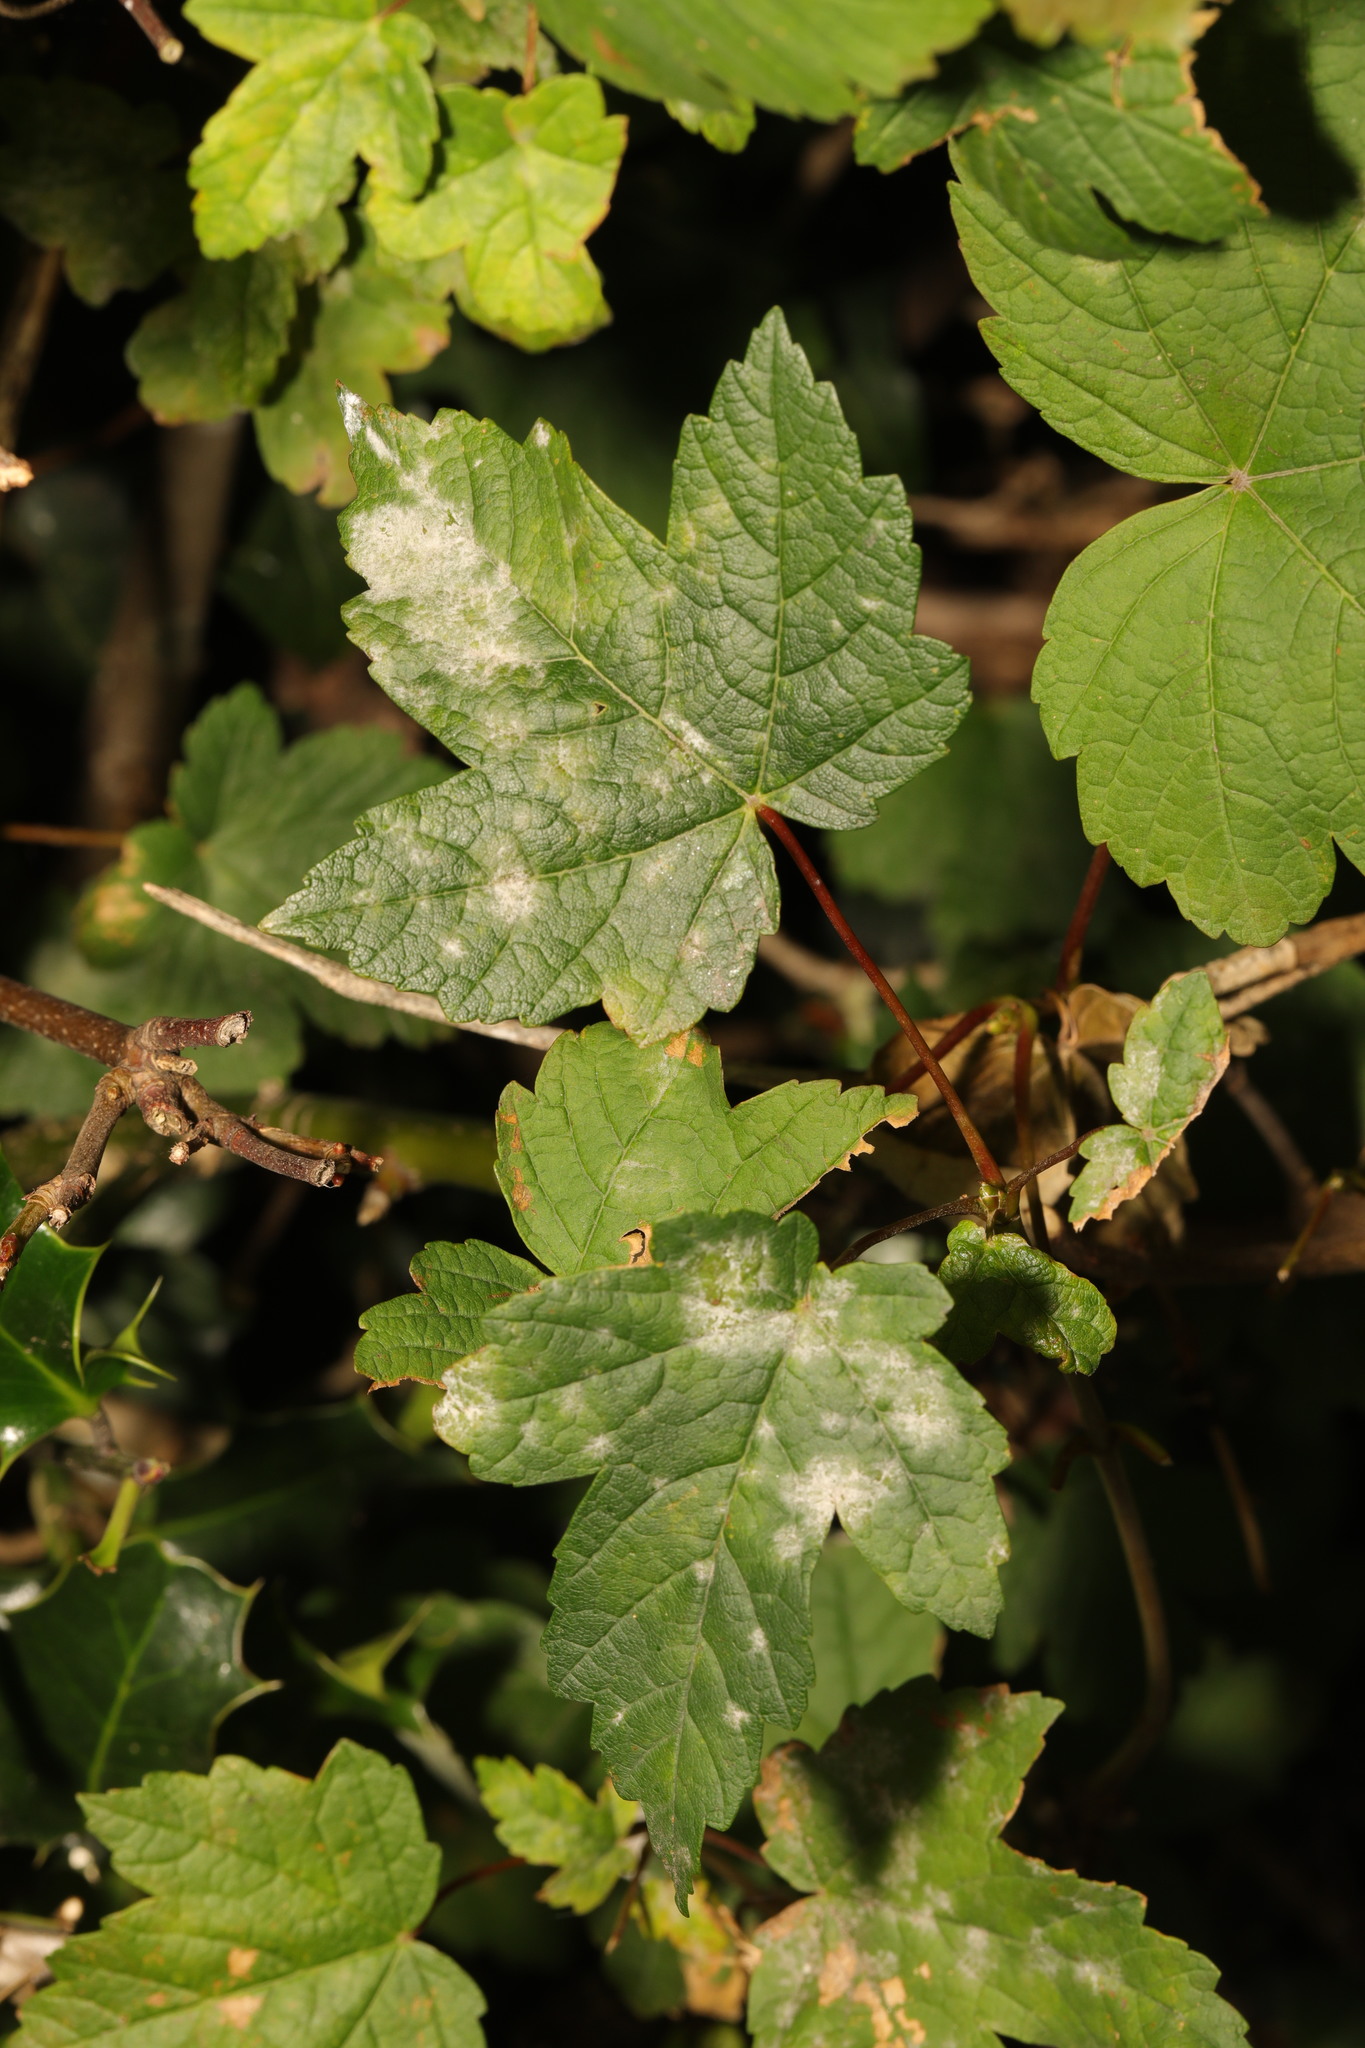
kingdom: Plantae
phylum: Tracheophyta
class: Magnoliopsida
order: Sapindales
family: Sapindaceae
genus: Acer
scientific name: Acer pseudoplatanus
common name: Sycamore
